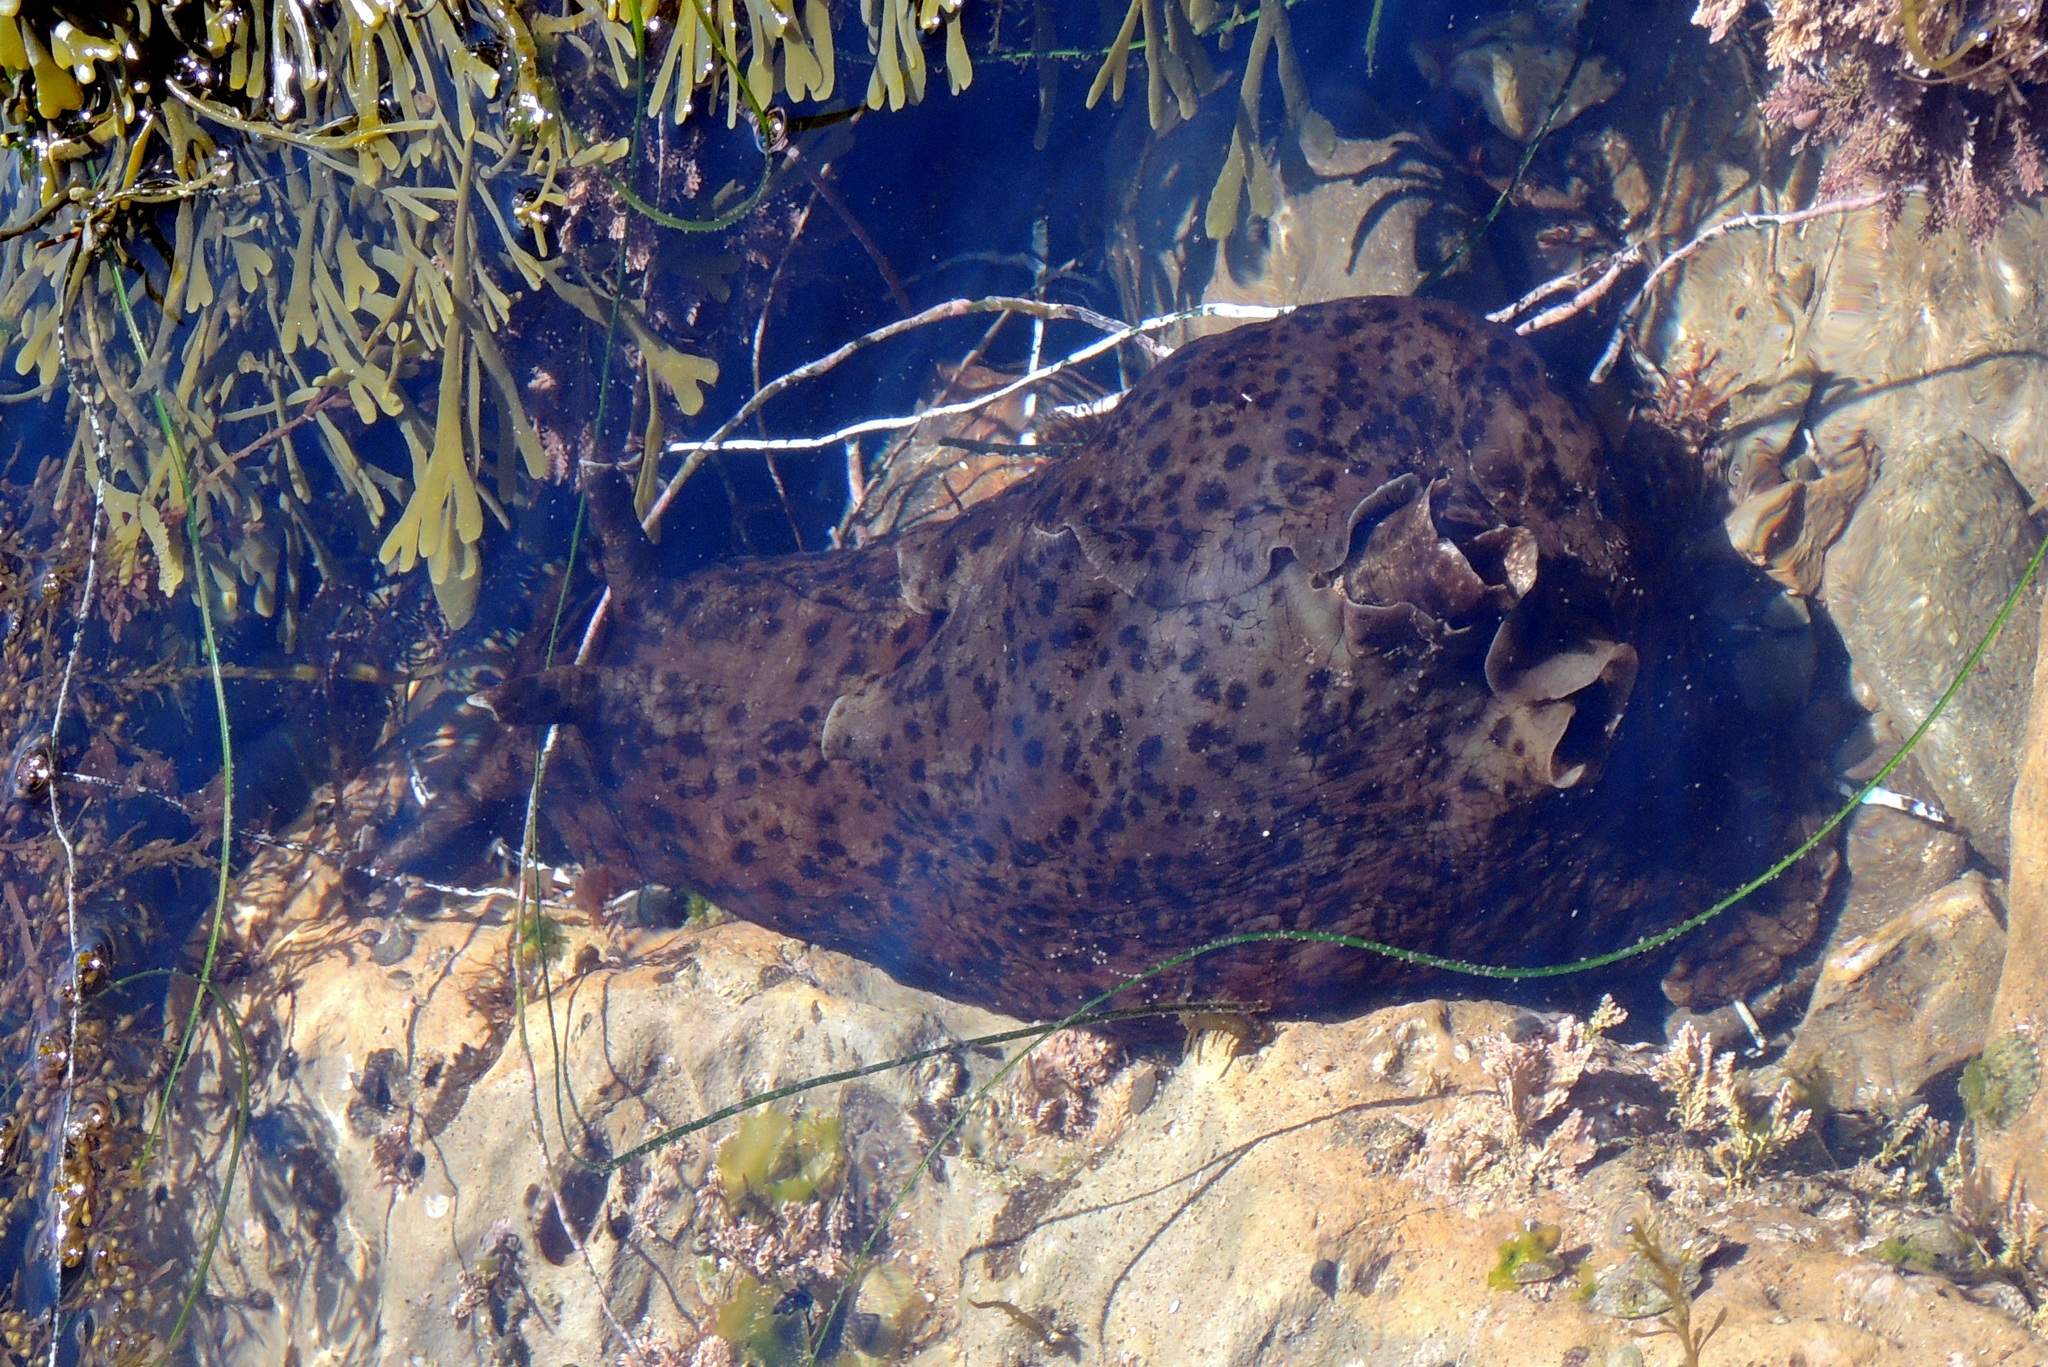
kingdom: Animalia
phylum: Mollusca
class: Gastropoda
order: Aplysiida
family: Aplysiidae
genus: Aplysia
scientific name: Aplysia californica
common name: California seahare
